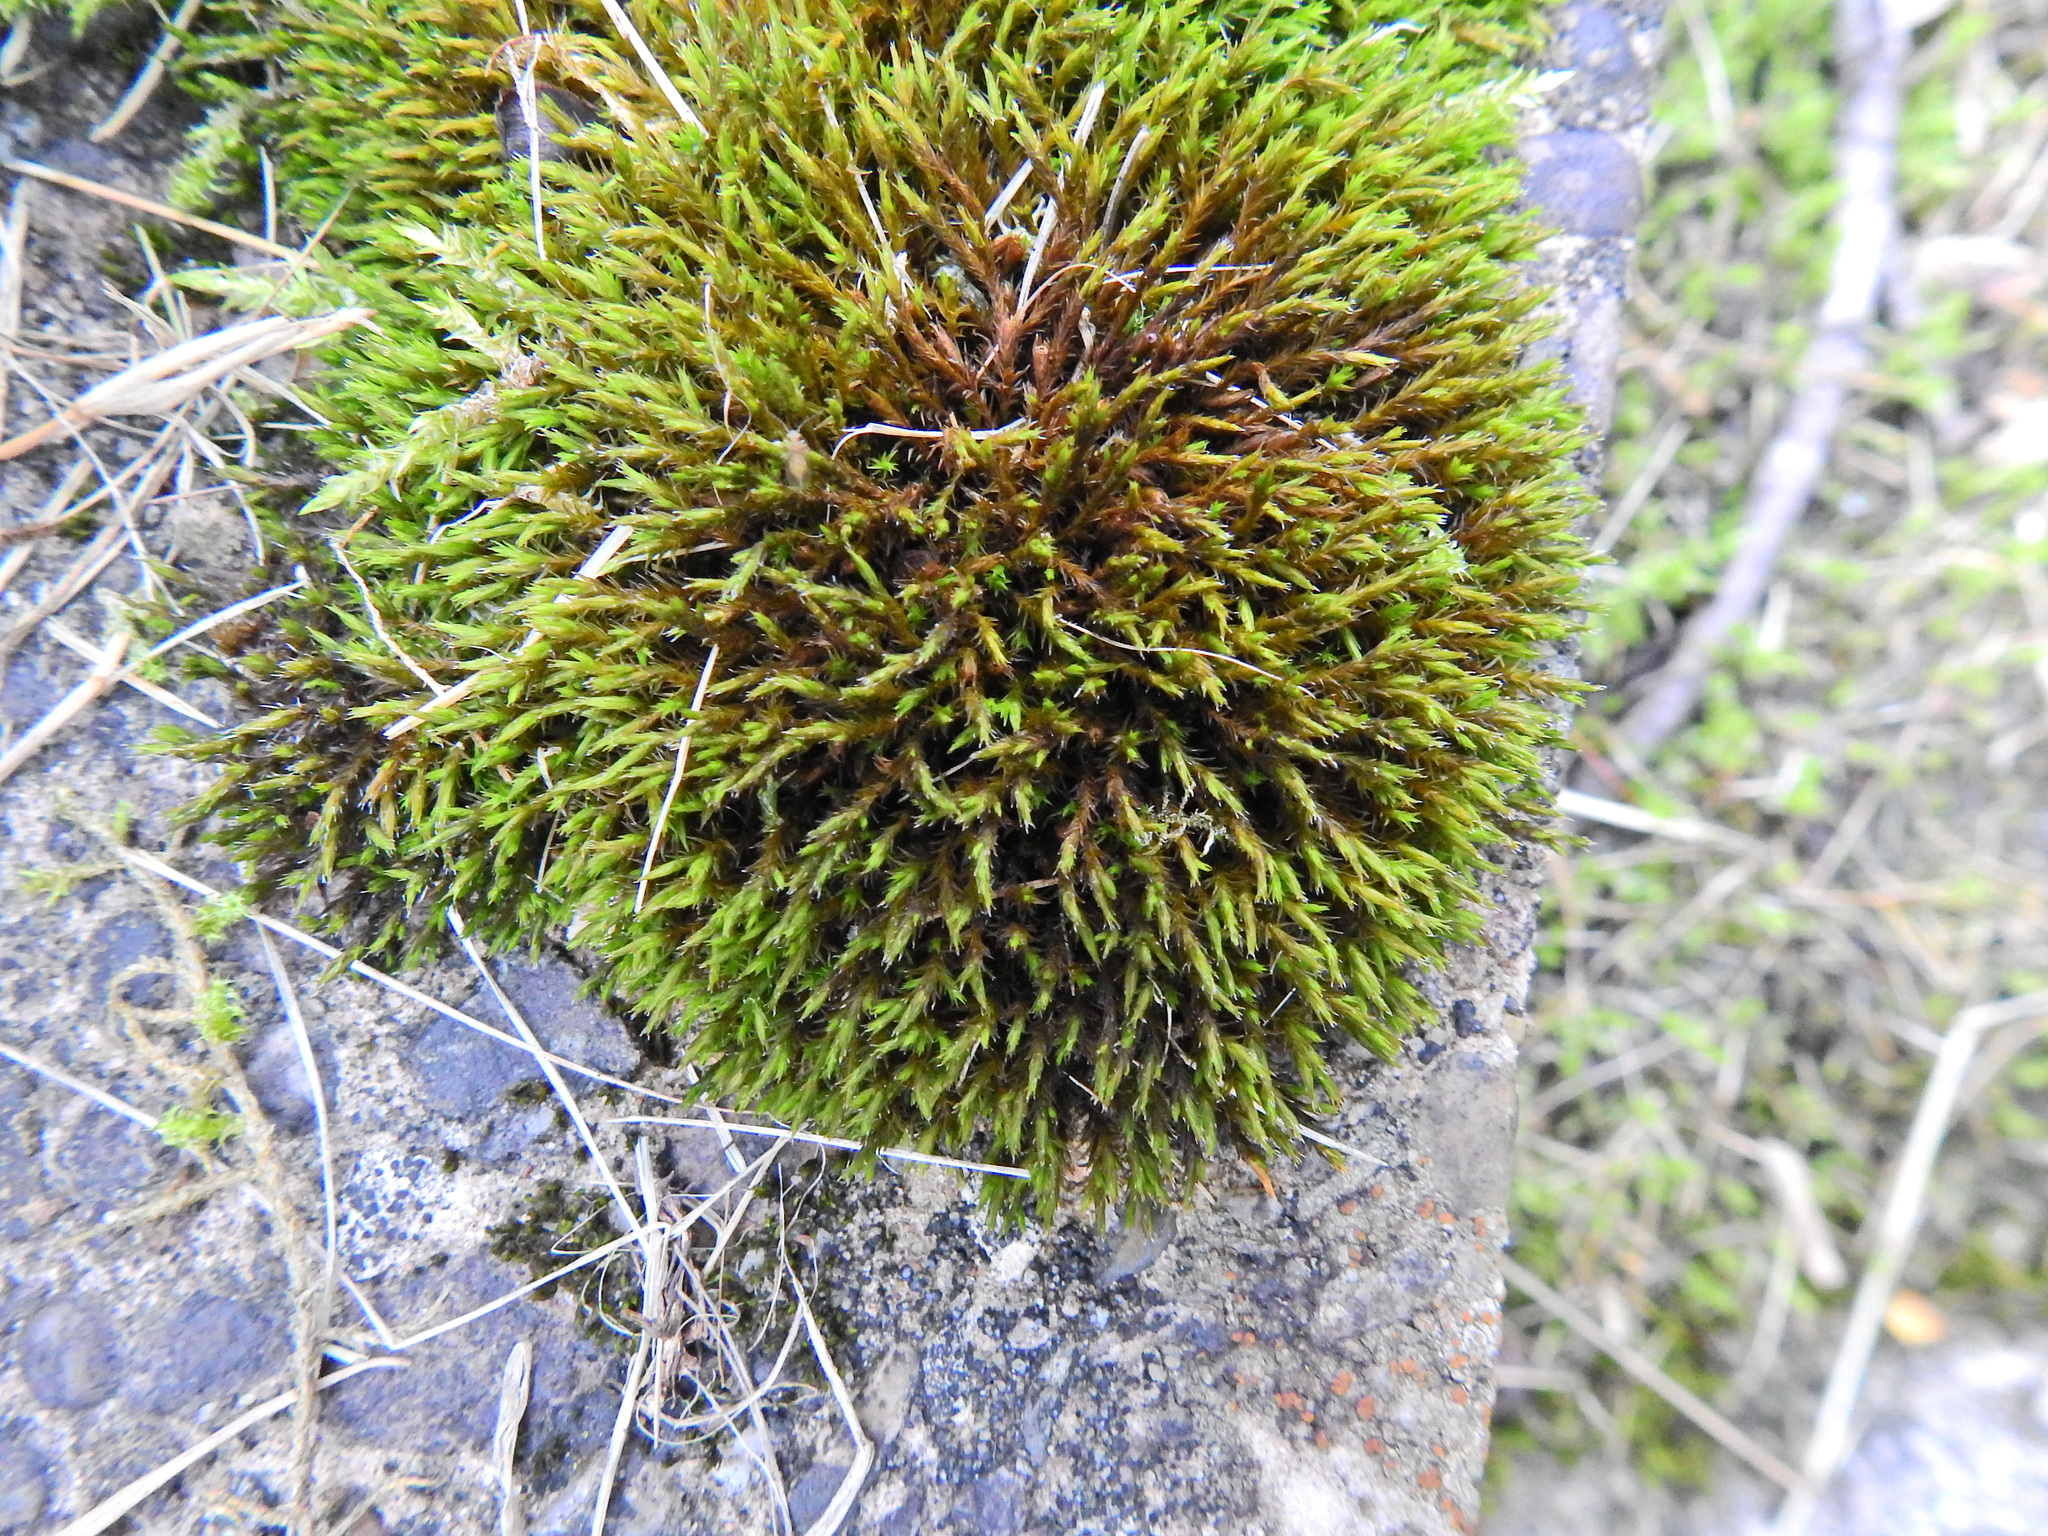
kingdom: Plantae
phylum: Bryophyta
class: Bryopsida
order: Grimmiales
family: Grimmiaceae
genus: Schistidium
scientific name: Schistidium crassipilum
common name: Thickpoint bloom moss
